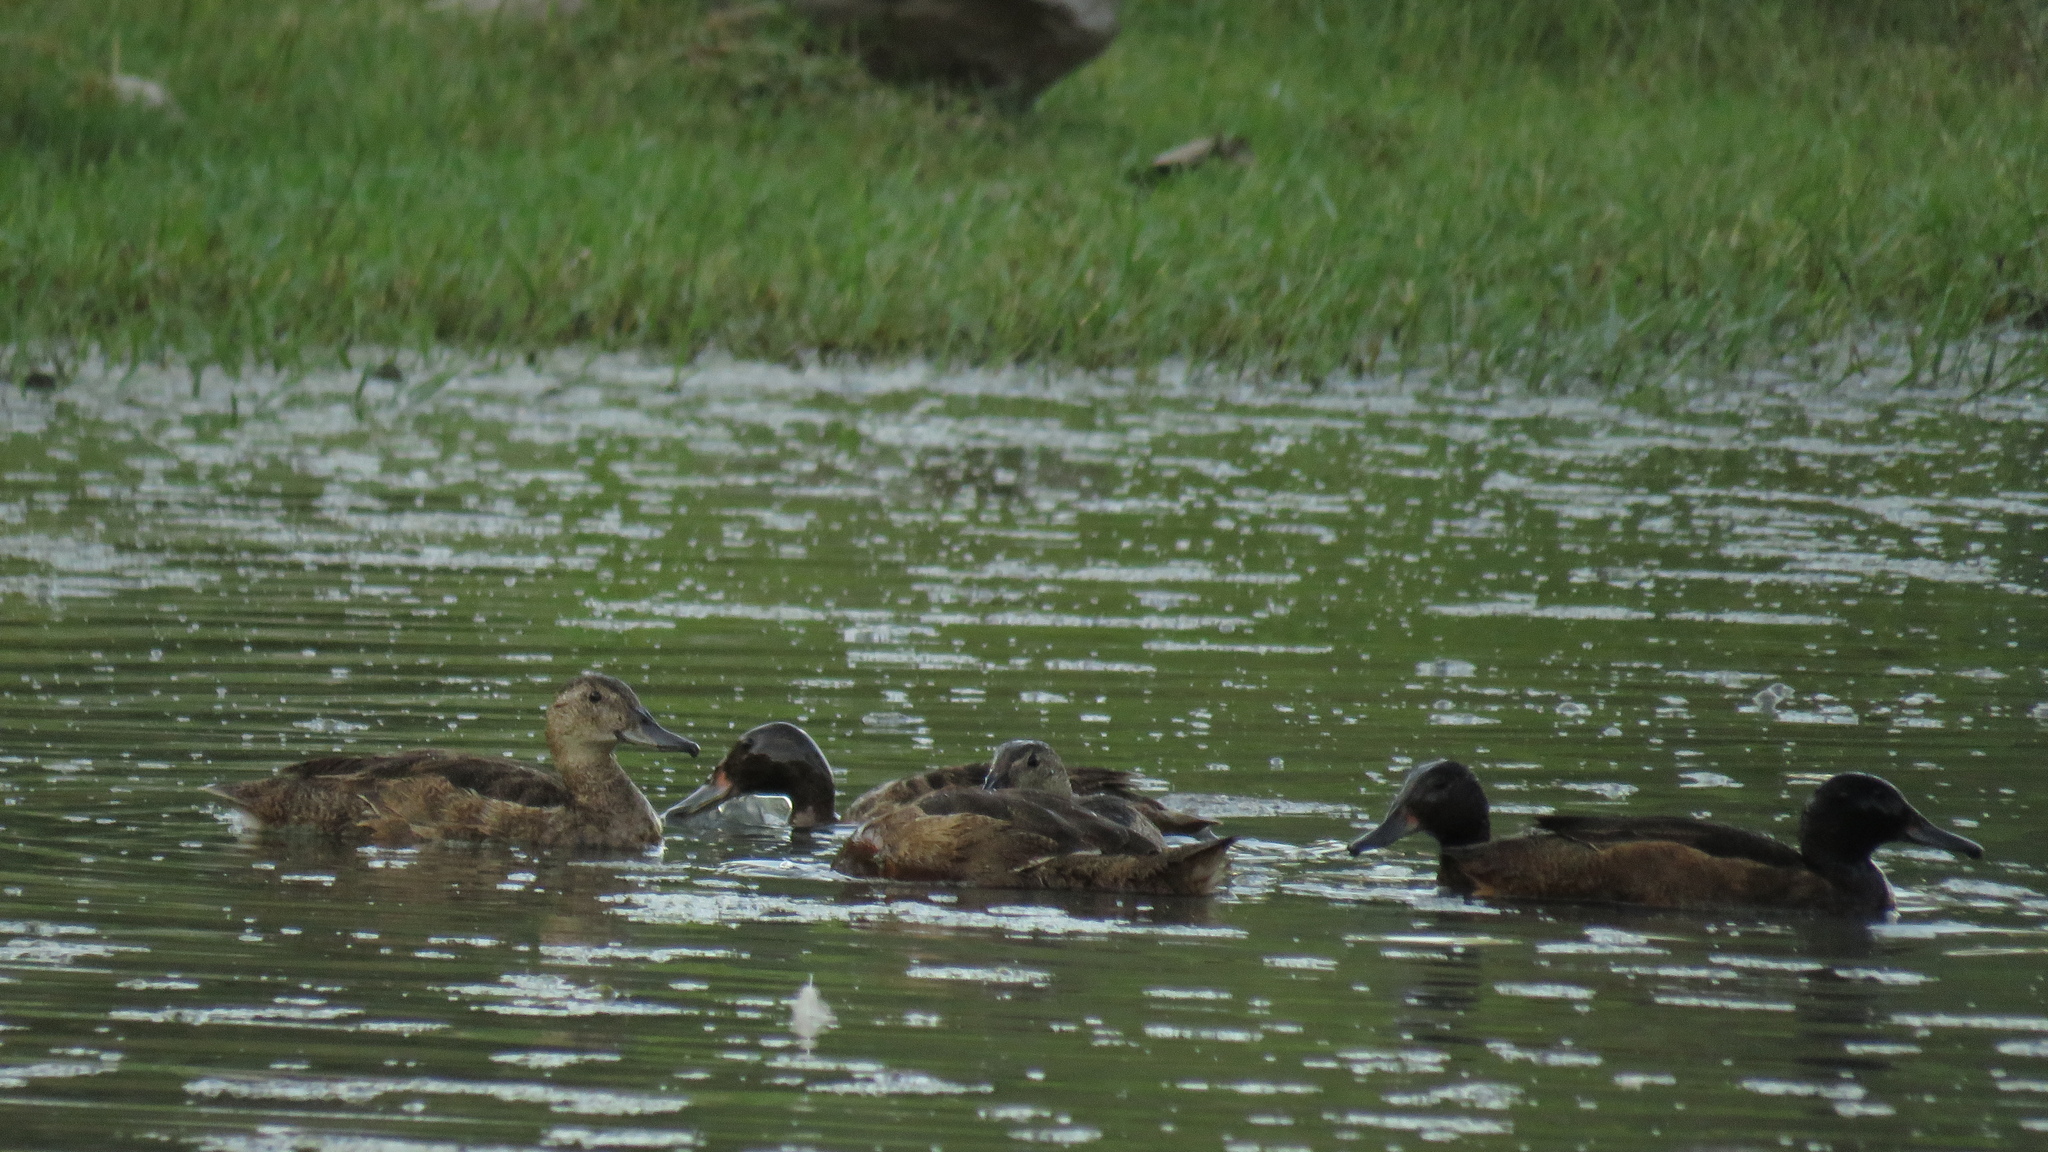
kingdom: Animalia
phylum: Chordata
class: Aves
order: Anseriformes
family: Anatidae
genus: Heteronetta
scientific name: Heteronetta atricapilla
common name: Black-headed duck
